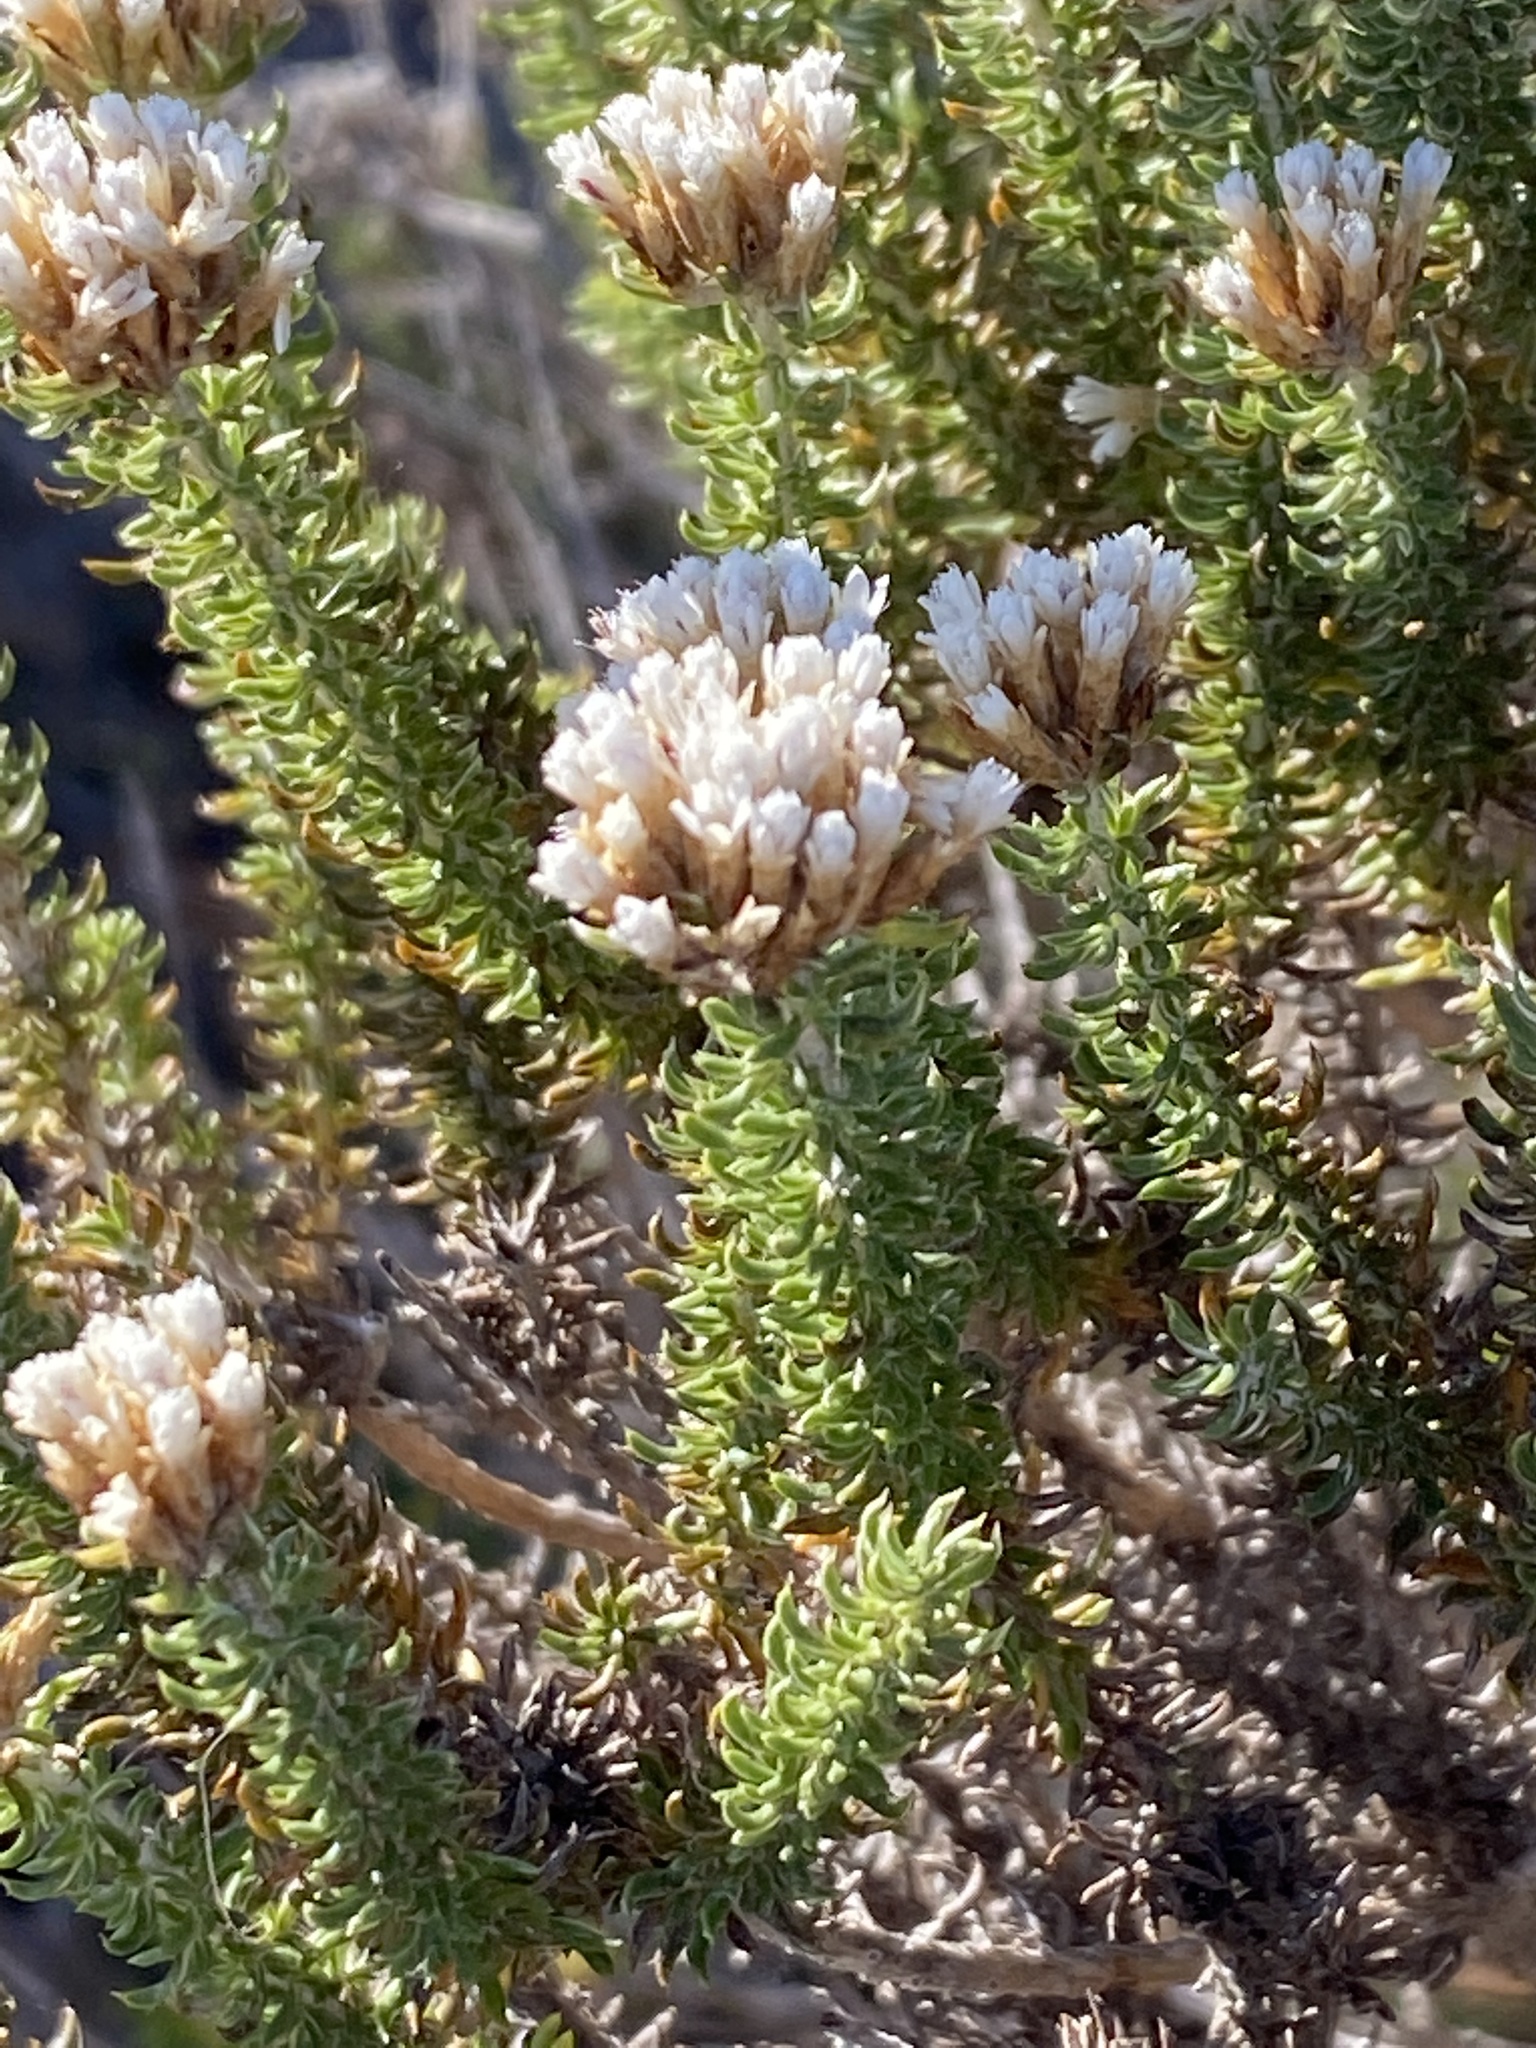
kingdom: Plantae
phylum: Tracheophyta
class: Magnoliopsida
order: Asterales
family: Asteraceae
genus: Metalasia
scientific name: Metalasia muricata
